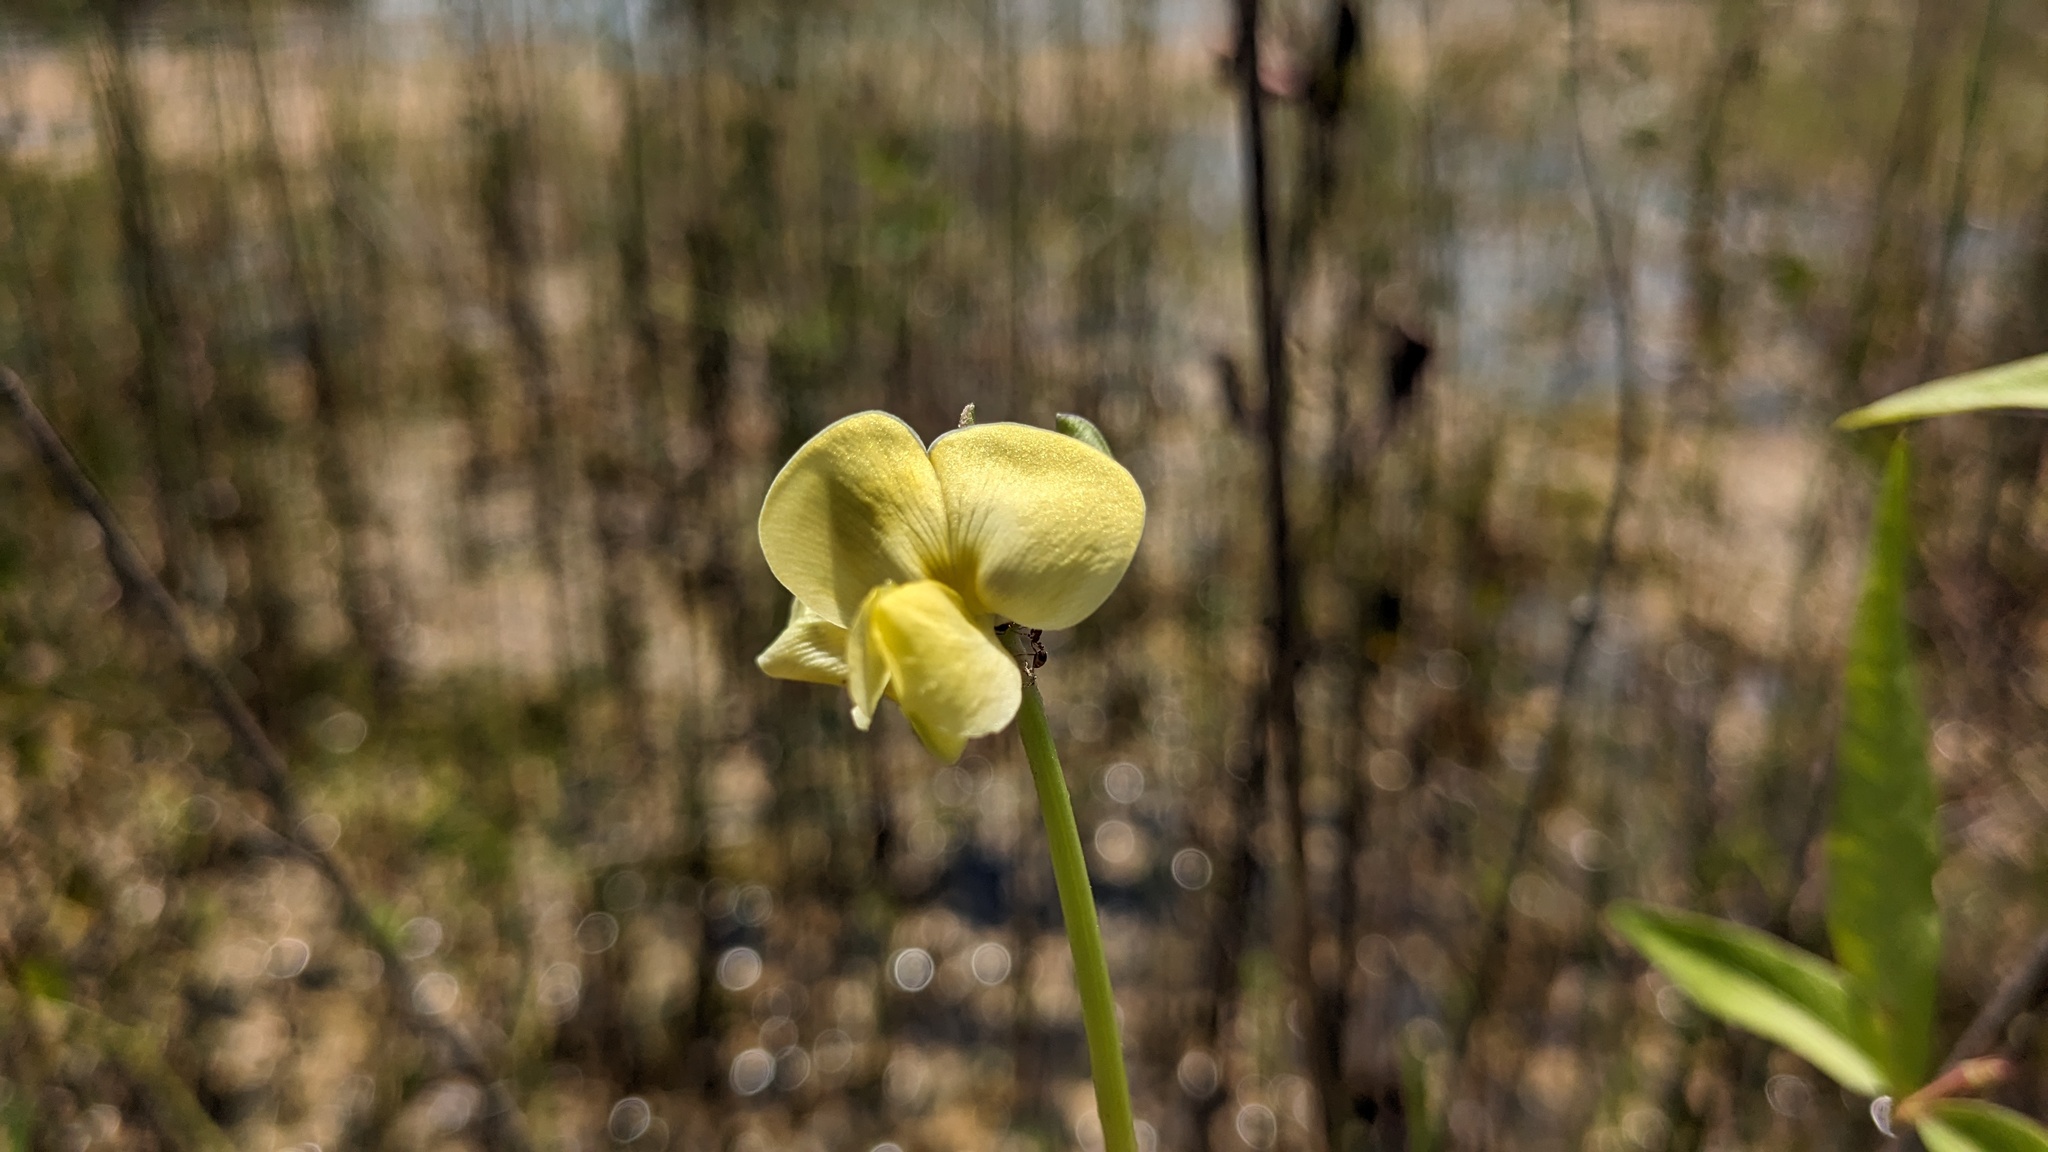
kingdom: Plantae
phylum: Tracheophyta
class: Magnoliopsida
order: Fabales
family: Fabaceae
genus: Vigna
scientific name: Vigna luteola
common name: Hairypod cowpea
